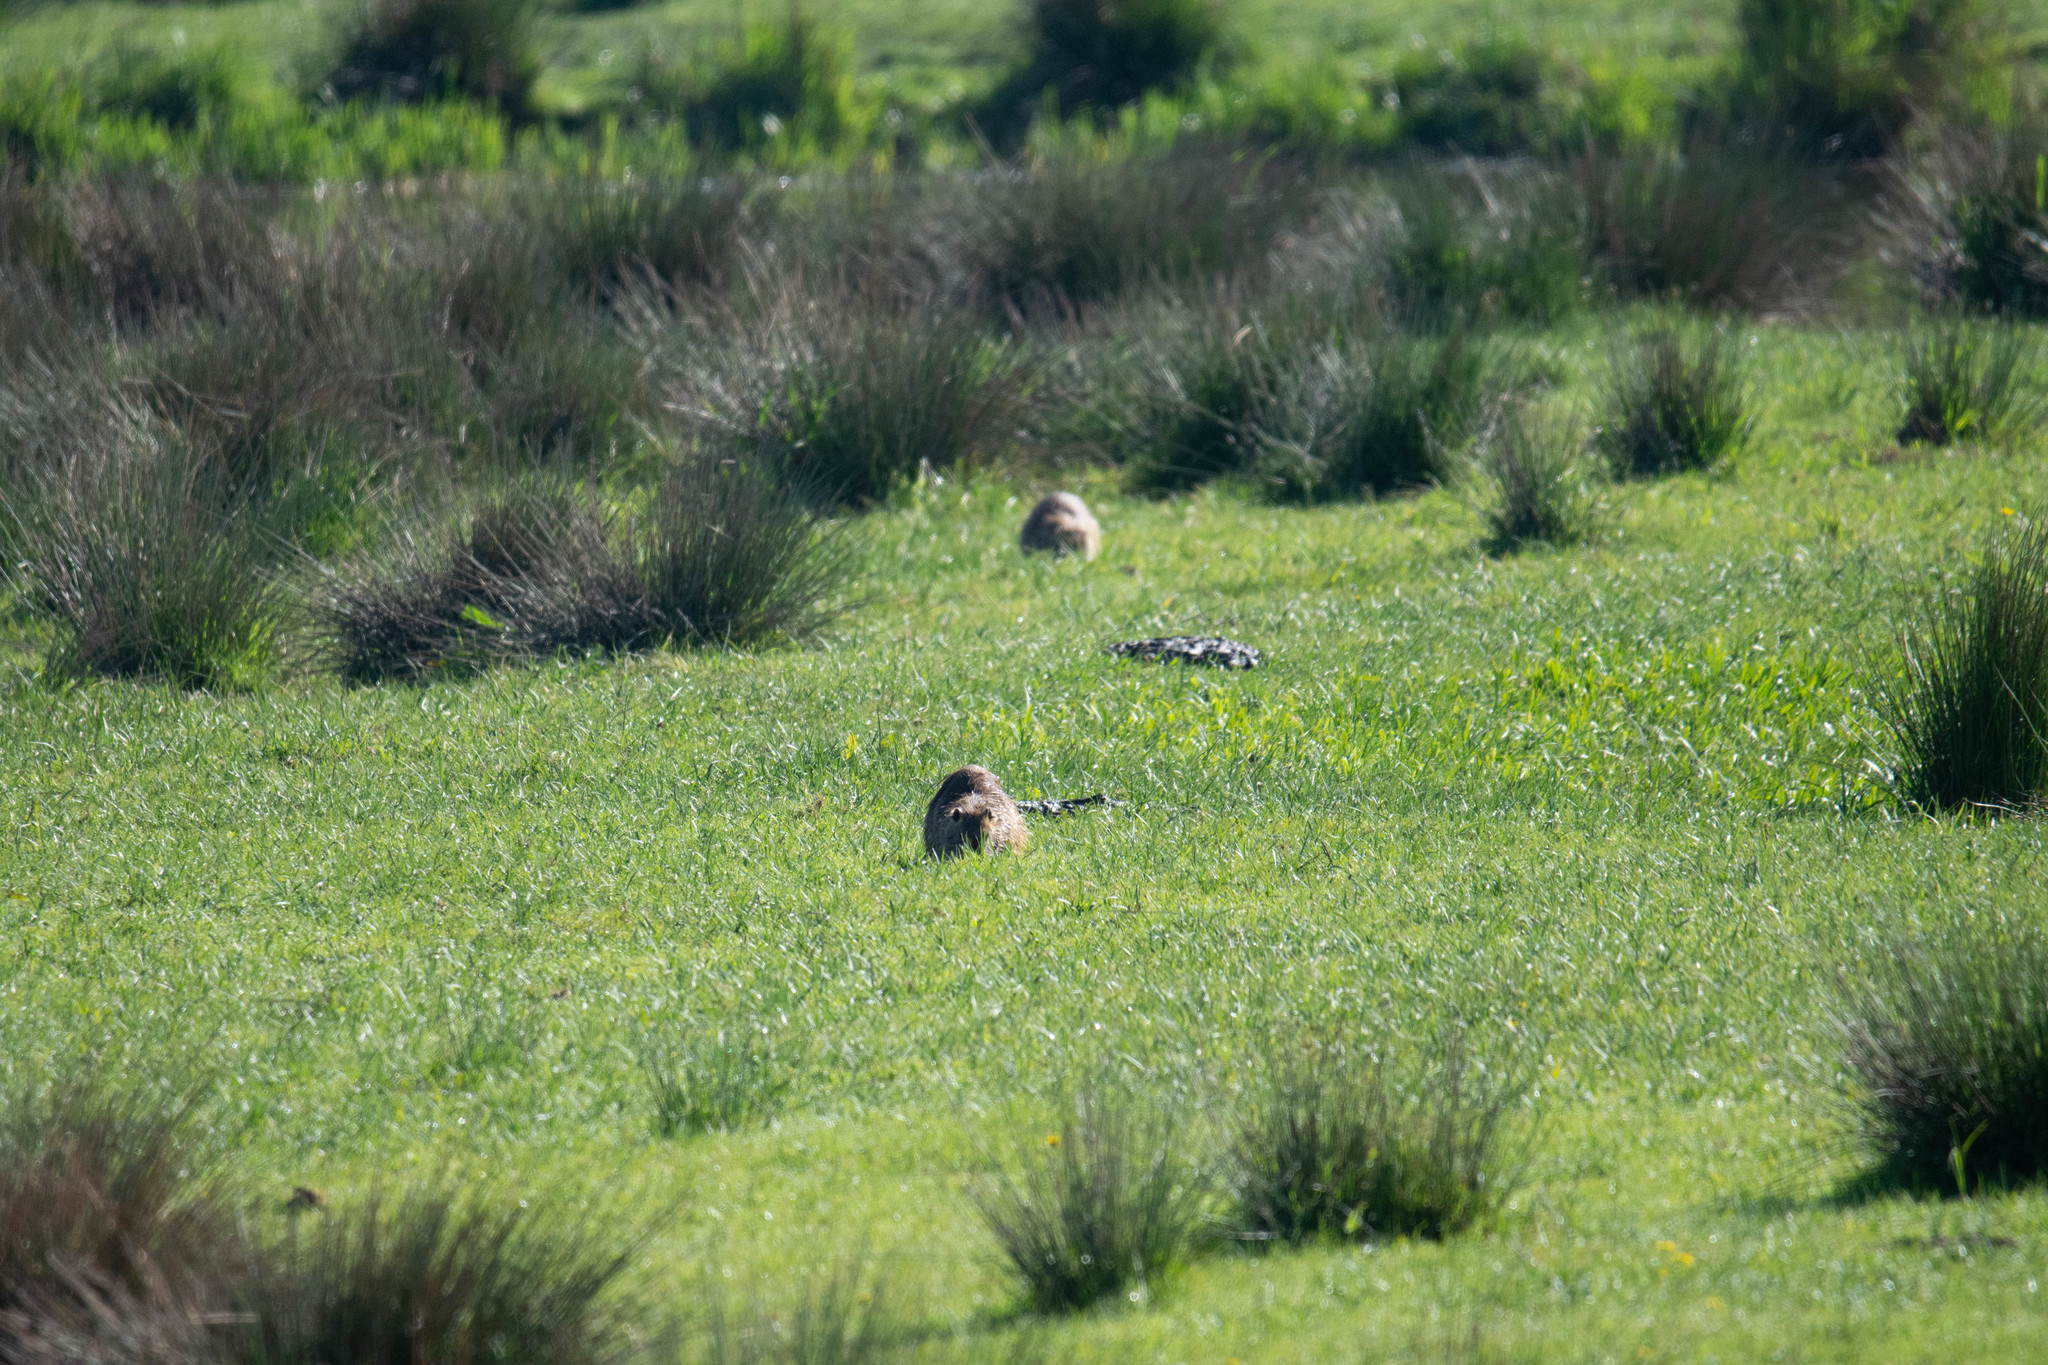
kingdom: Animalia
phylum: Chordata
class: Mammalia
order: Rodentia
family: Myocastoridae
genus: Myocastor
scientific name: Myocastor coypus
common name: Coypu
